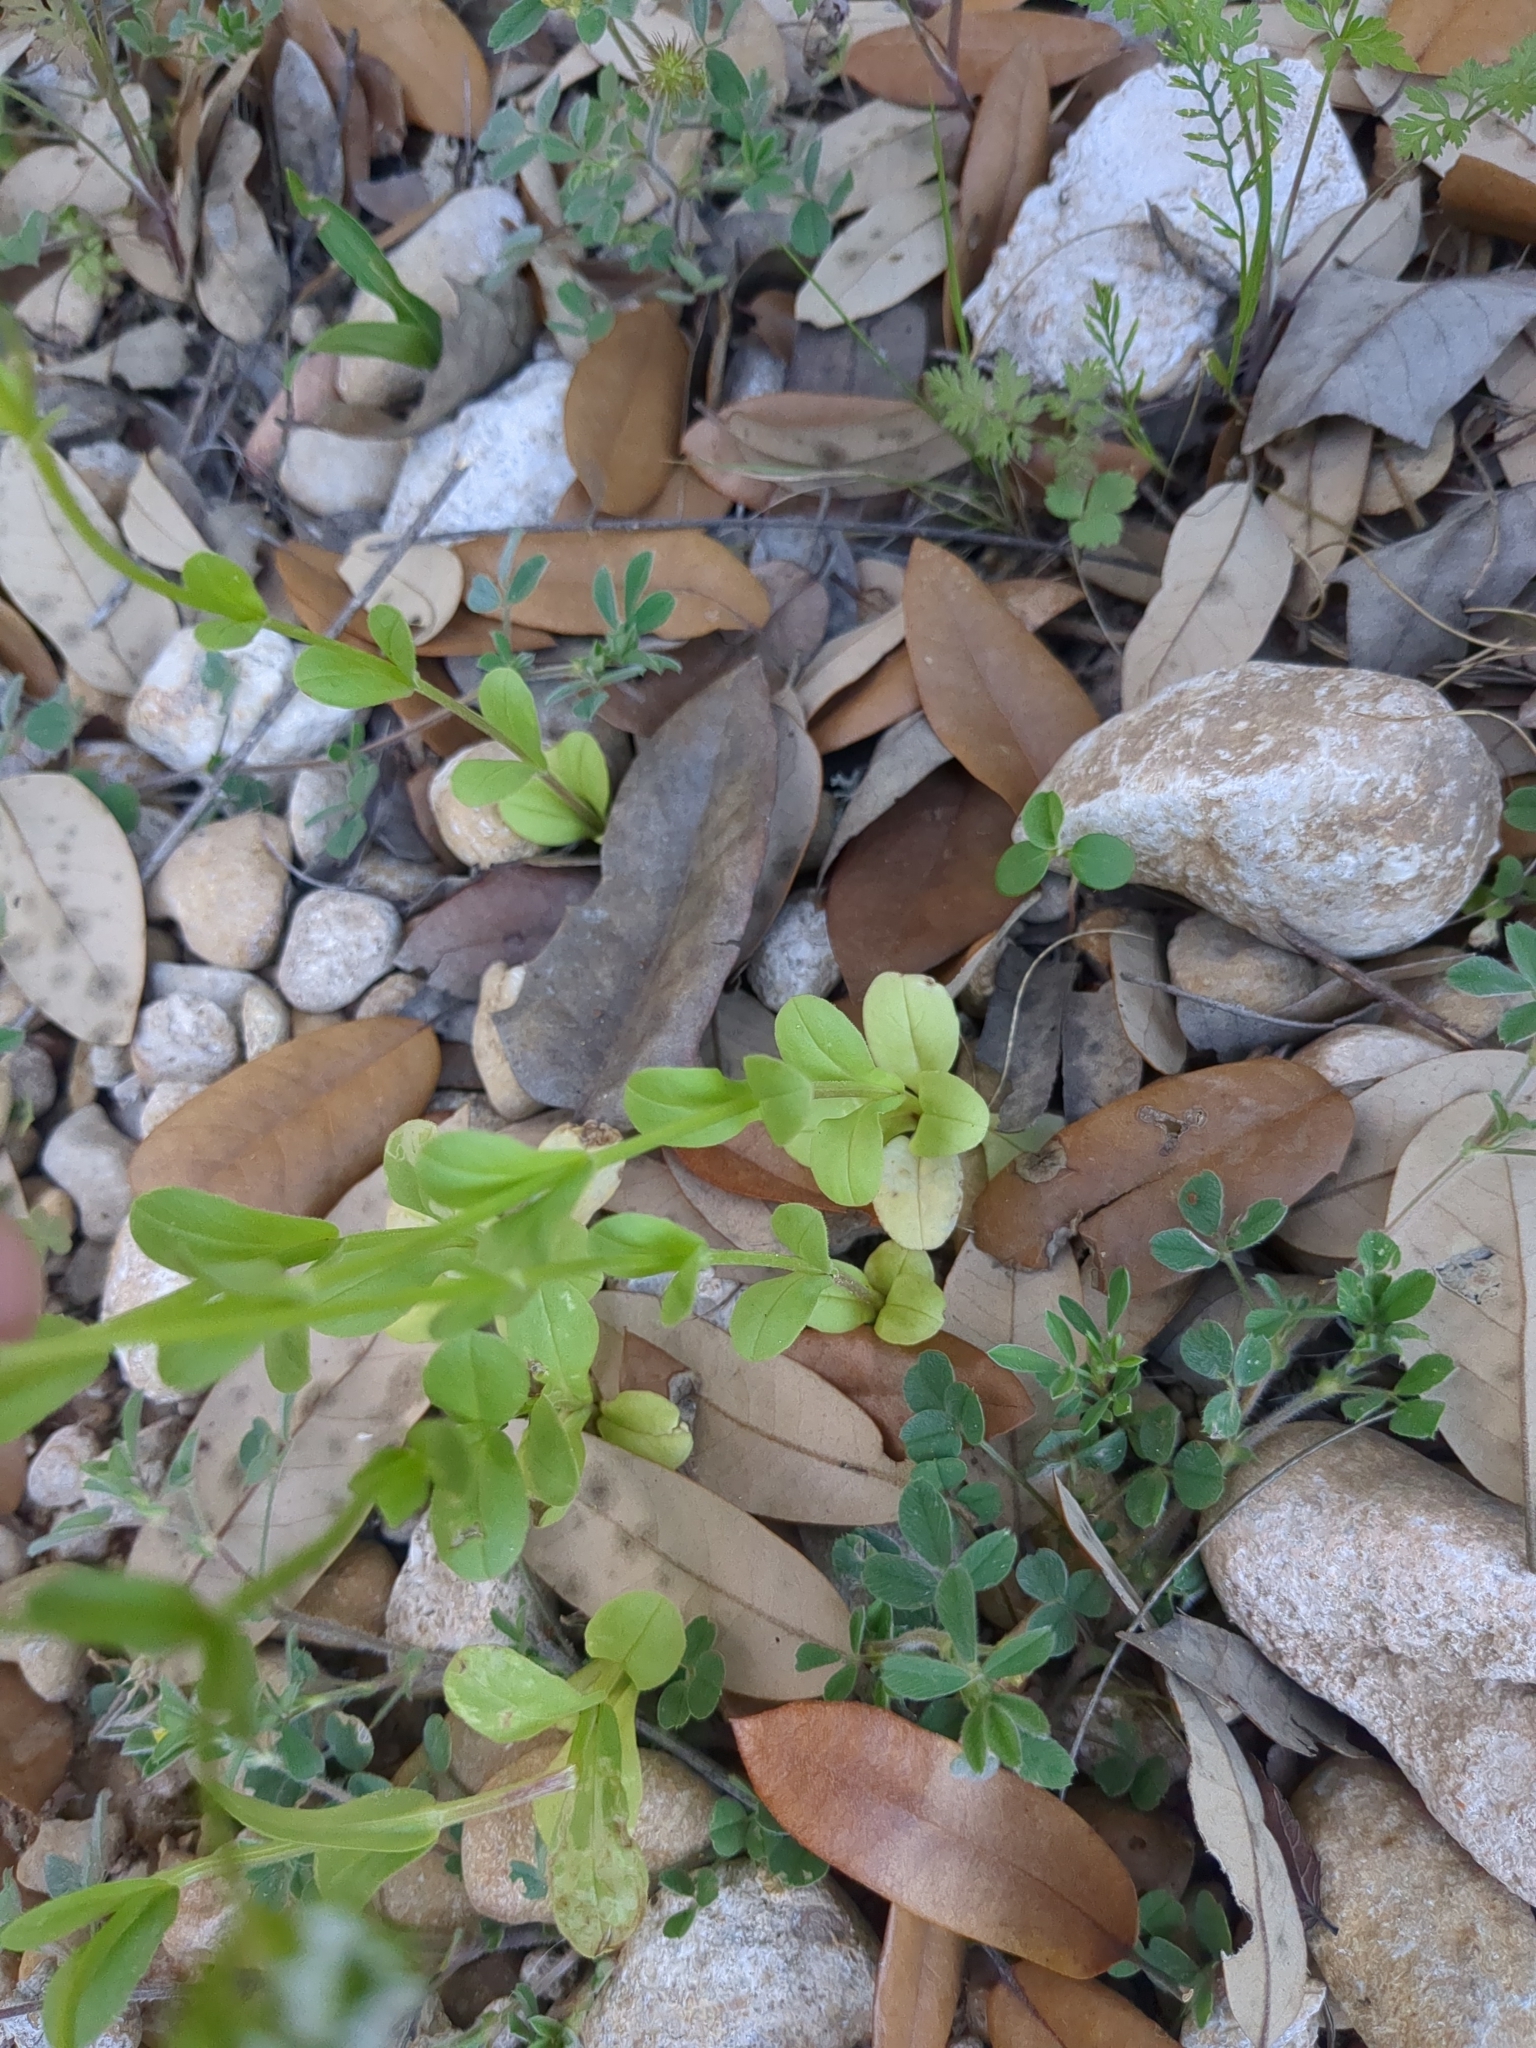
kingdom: Plantae
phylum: Tracheophyta
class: Magnoliopsida
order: Dipsacales
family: Caprifoliaceae
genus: Valerianella
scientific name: Valerianella radiata
